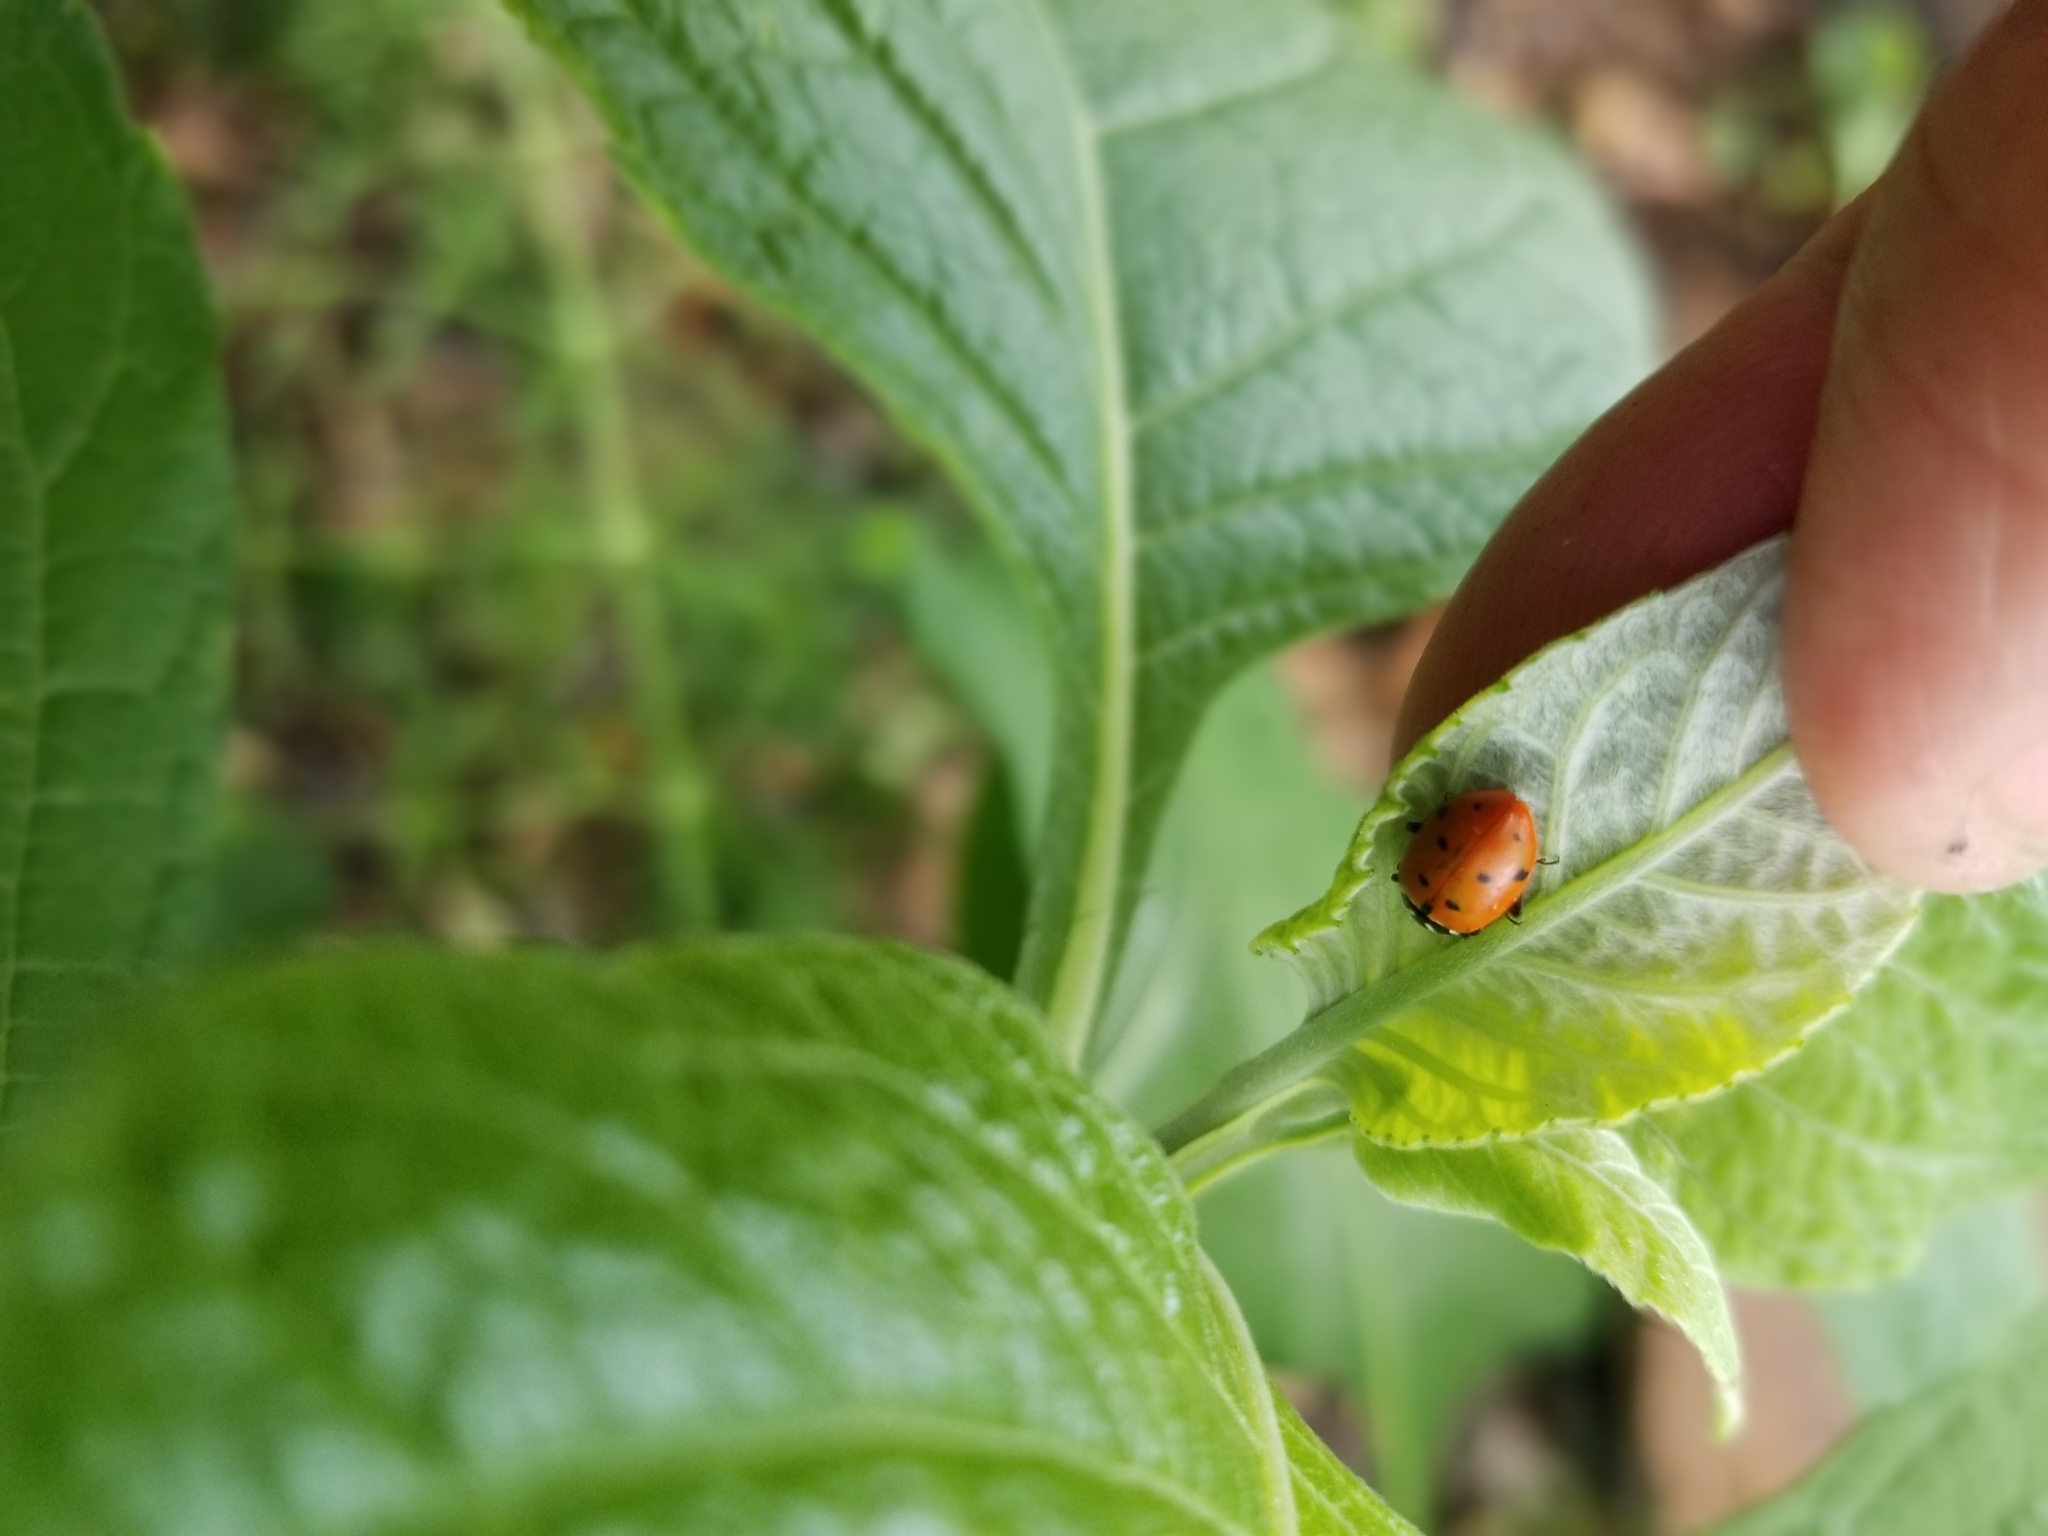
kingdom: Animalia
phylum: Arthropoda
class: Insecta
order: Coleoptera
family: Coccinellidae
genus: Hippodamia
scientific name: Hippodamia convergens
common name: Convergent lady beetle
